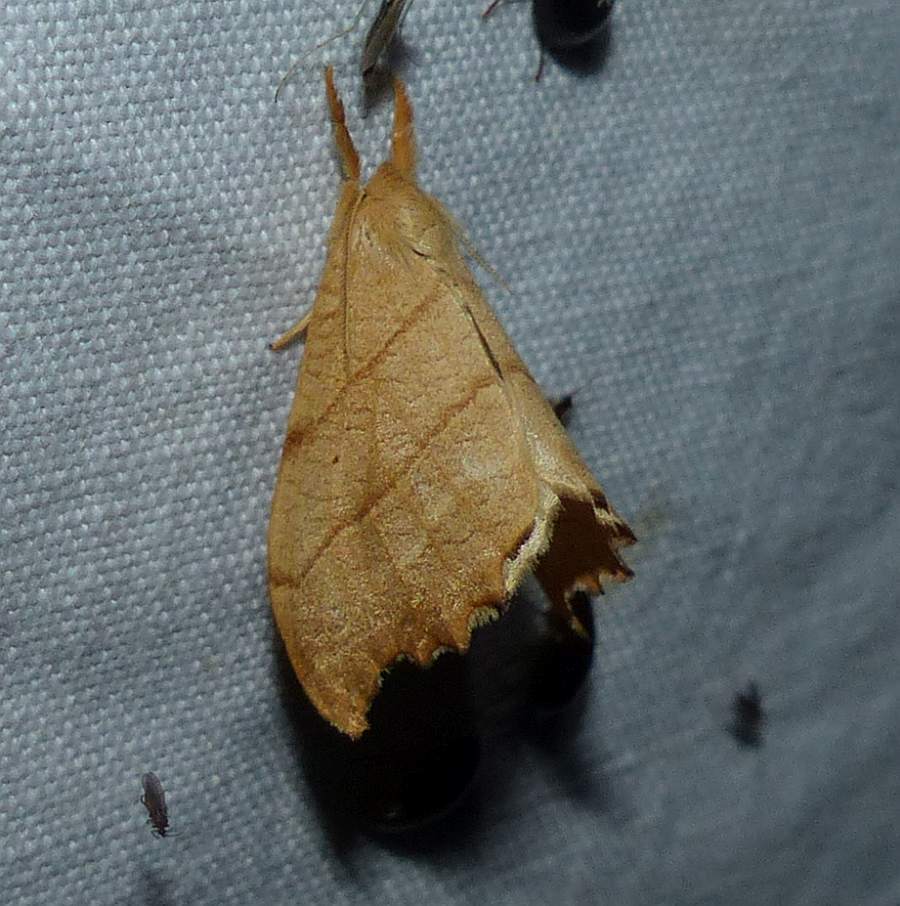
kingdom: Animalia
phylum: Arthropoda
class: Insecta
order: Lepidoptera
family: Drepanidae
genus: Falcaria
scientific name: Falcaria bilineata
